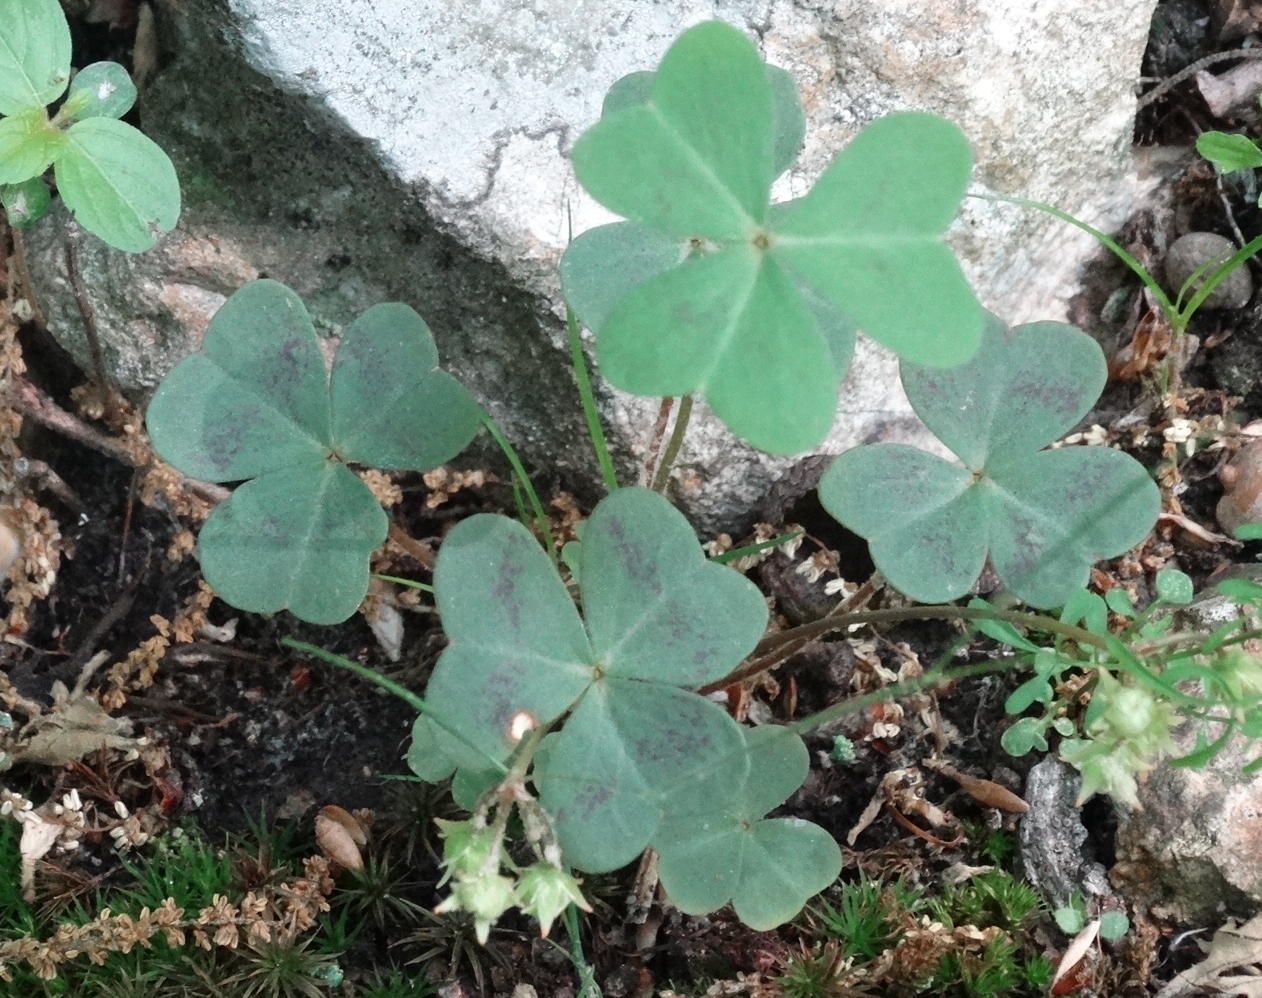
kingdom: Plantae
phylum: Tracheophyta
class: Magnoliopsida
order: Oxalidales
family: Oxalidaceae
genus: Oxalis
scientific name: Oxalis violacea
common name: Violet wood-sorrel
